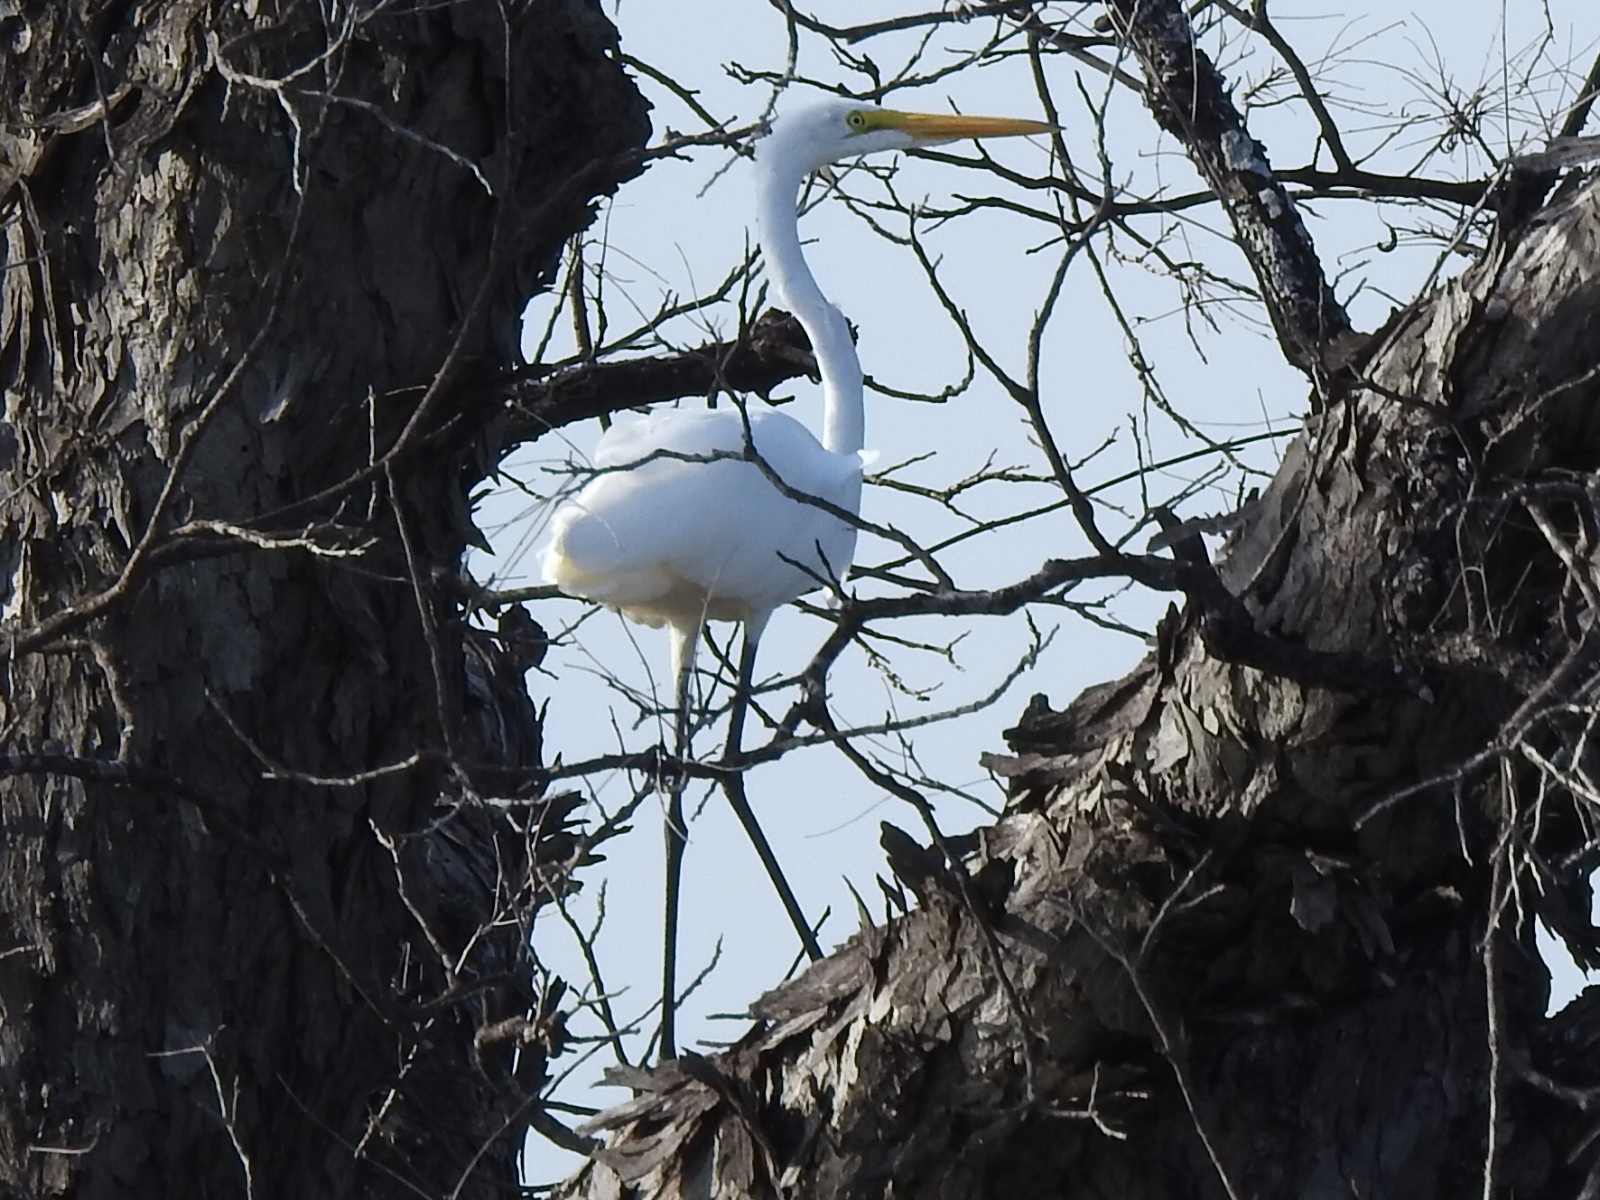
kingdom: Animalia
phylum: Chordata
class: Aves
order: Pelecaniformes
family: Ardeidae
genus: Ardea
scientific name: Ardea alba
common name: Great egret
